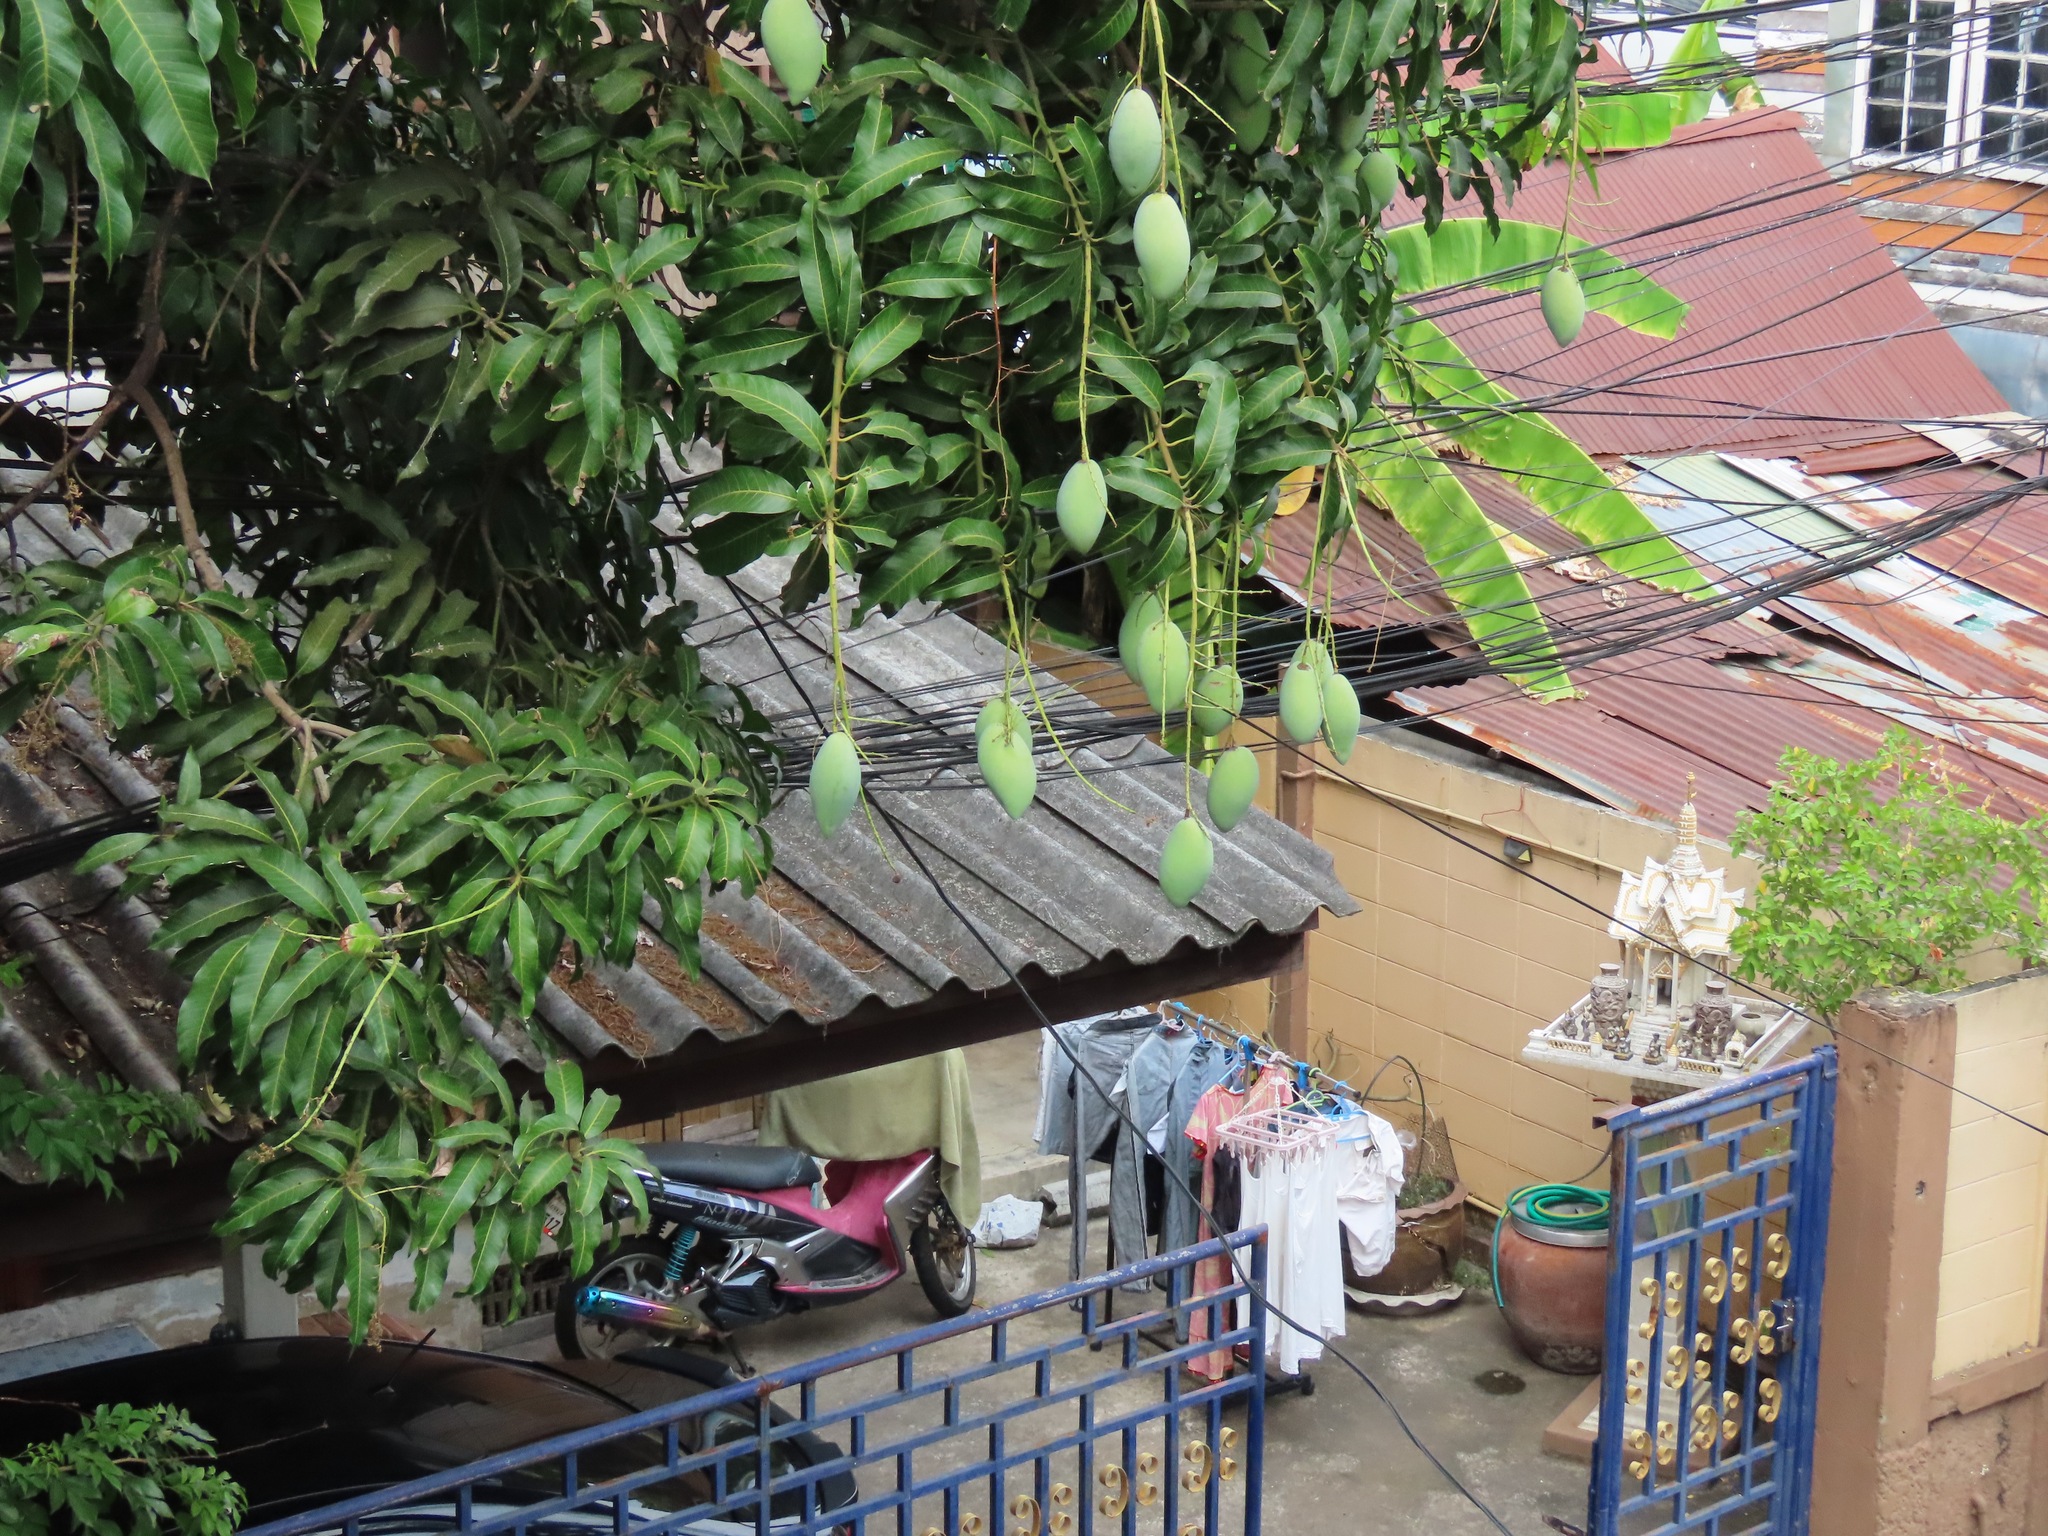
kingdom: Plantae
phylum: Tracheophyta
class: Magnoliopsida
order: Sapindales
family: Anacardiaceae
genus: Mangifera
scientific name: Mangifera indica
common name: Mango
